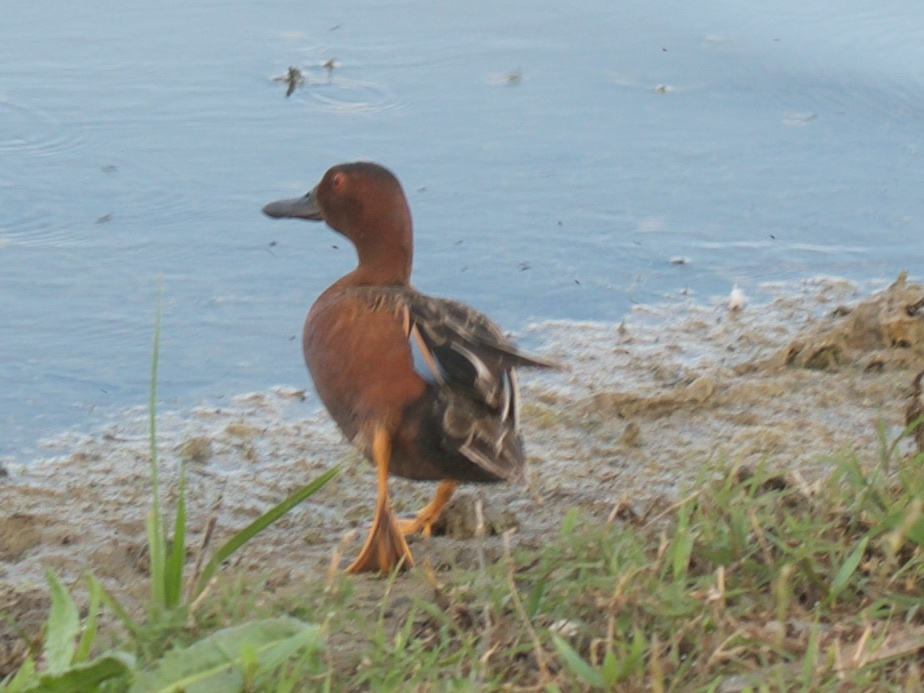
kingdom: Animalia
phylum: Chordata
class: Aves
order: Anseriformes
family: Anatidae
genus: Spatula
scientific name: Spatula cyanoptera
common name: Cinnamon teal
